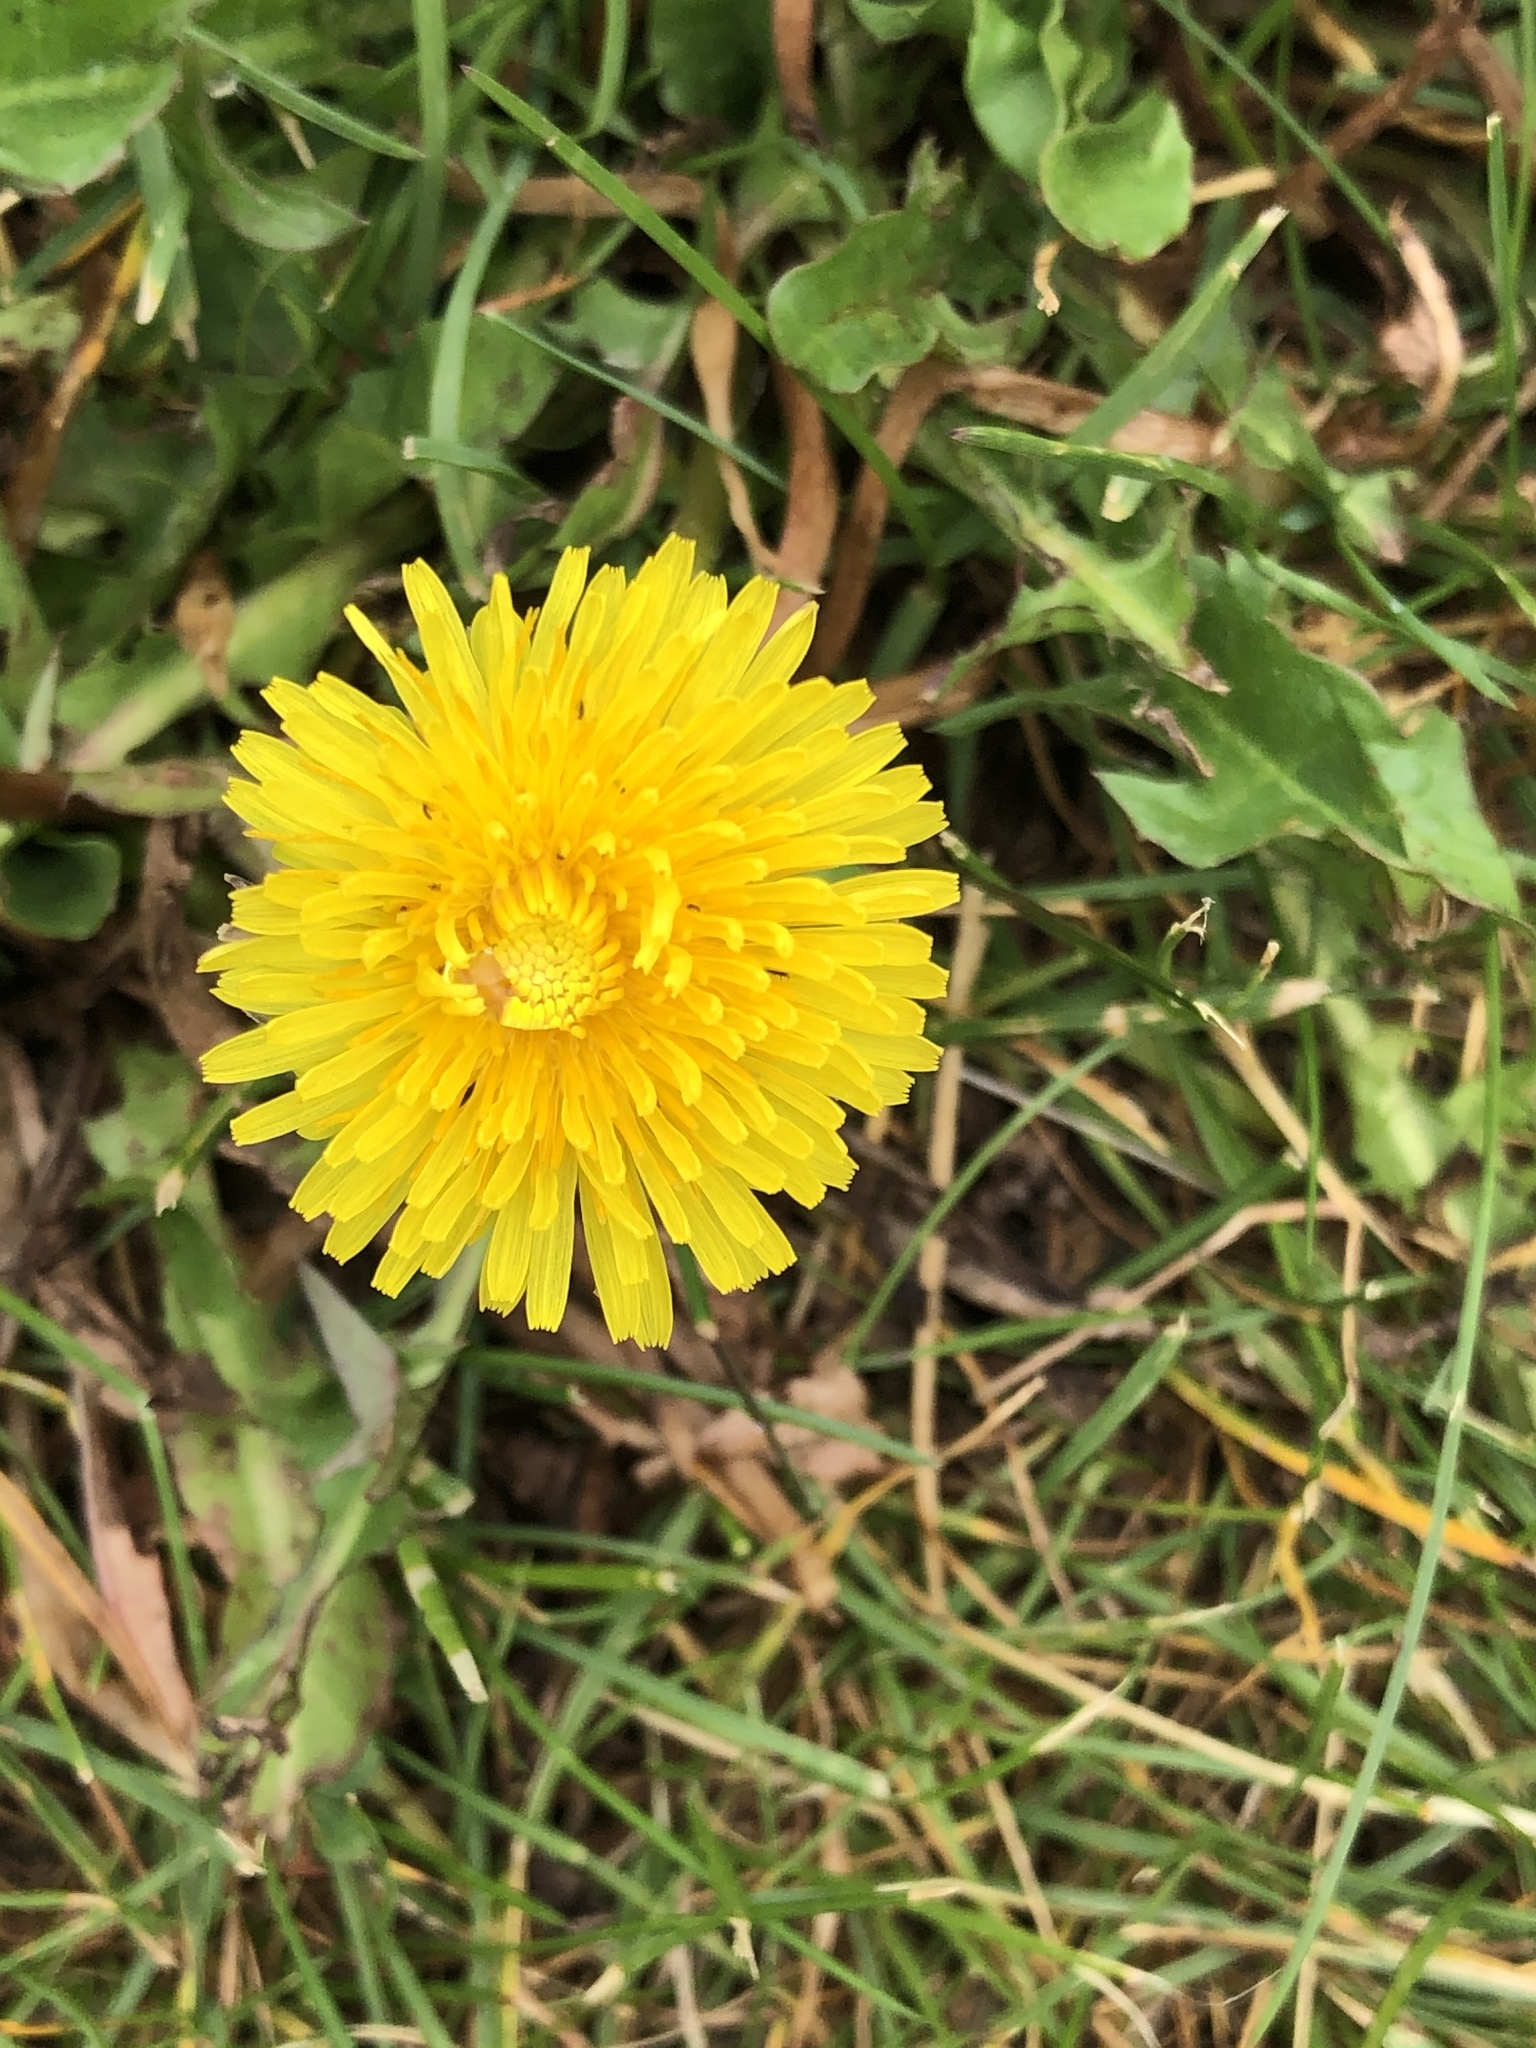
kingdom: Plantae
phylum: Tracheophyta
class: Magnoliopsida
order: Asterales
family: Asteraceae
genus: Taraxacum
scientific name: Taraxacum officinale
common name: Common dandelion
